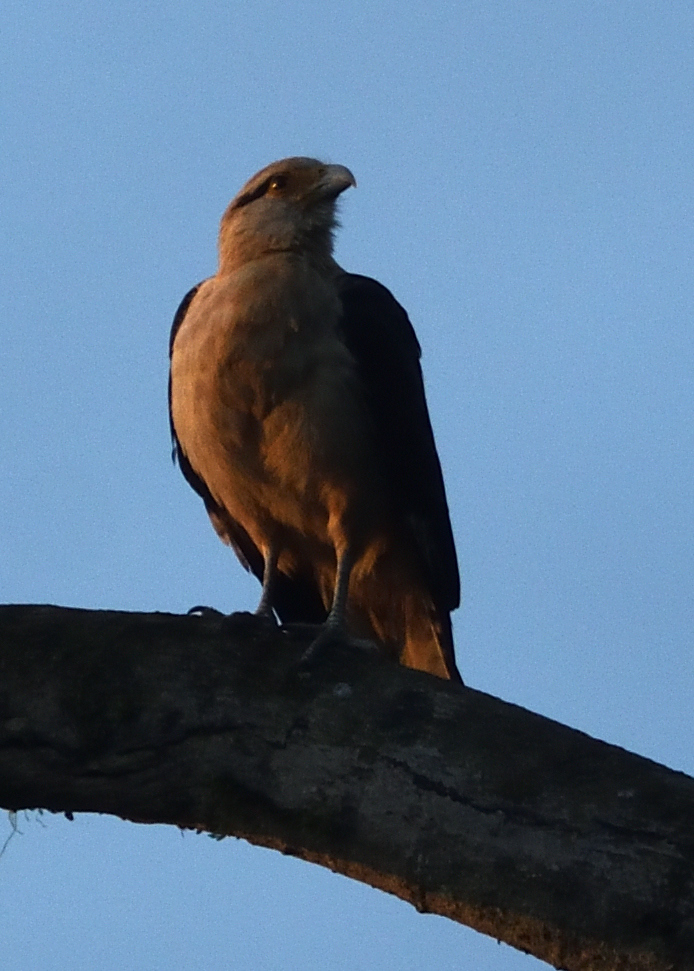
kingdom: Animalia
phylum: Chordata
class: Aves
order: Falconiformes
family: Falconidae
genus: Daptrius
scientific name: Daptrius
